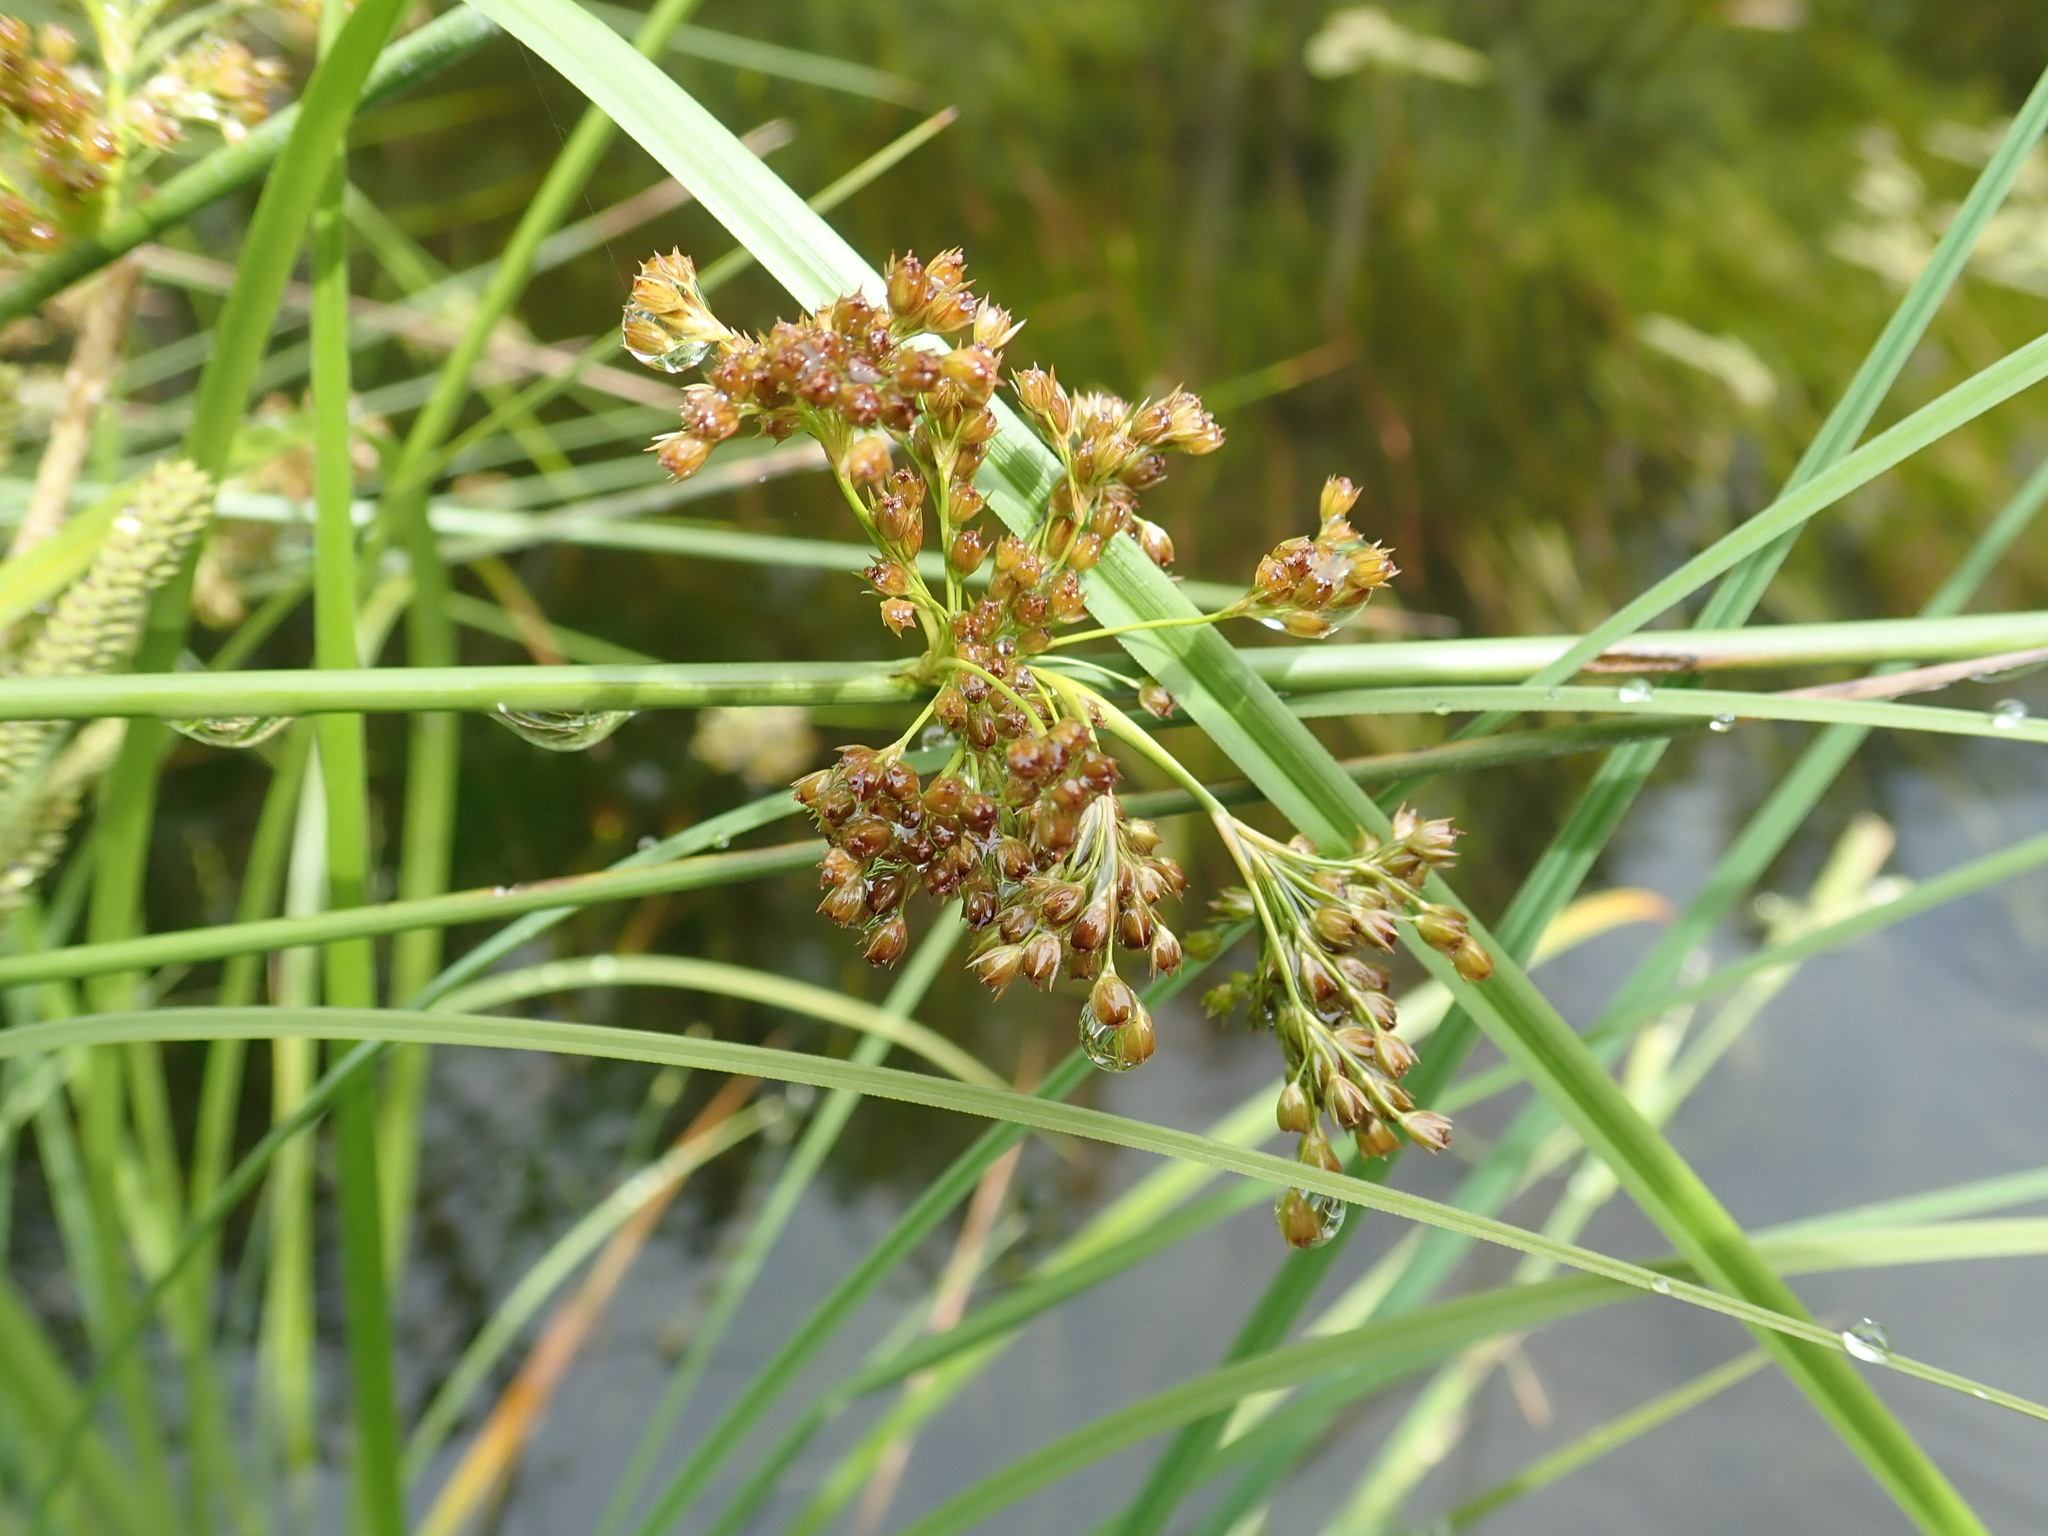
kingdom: Plantae
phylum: Tracheophyta
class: Liliopsida
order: Poales
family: Juncaceae
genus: Juncus
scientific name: Juncus effusus
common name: Soft rush
